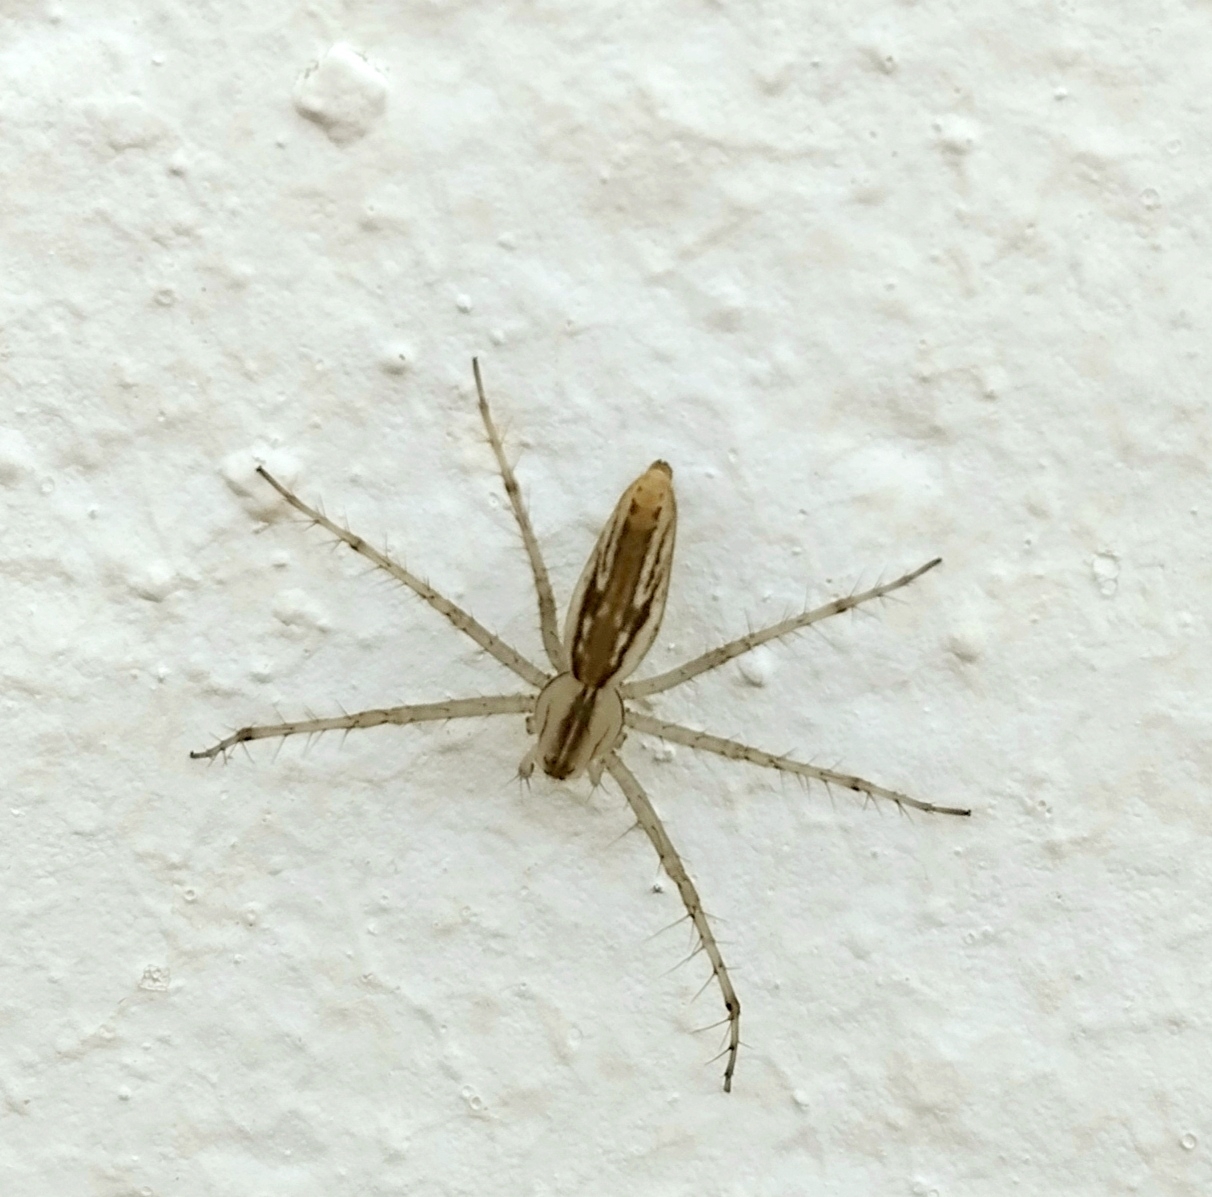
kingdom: Animalia
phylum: Arthropoda
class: Arachnida
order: Araneae
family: Oxyopidae
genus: Peucetia
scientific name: Peucetia rubrolineata
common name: Lynx spiders
